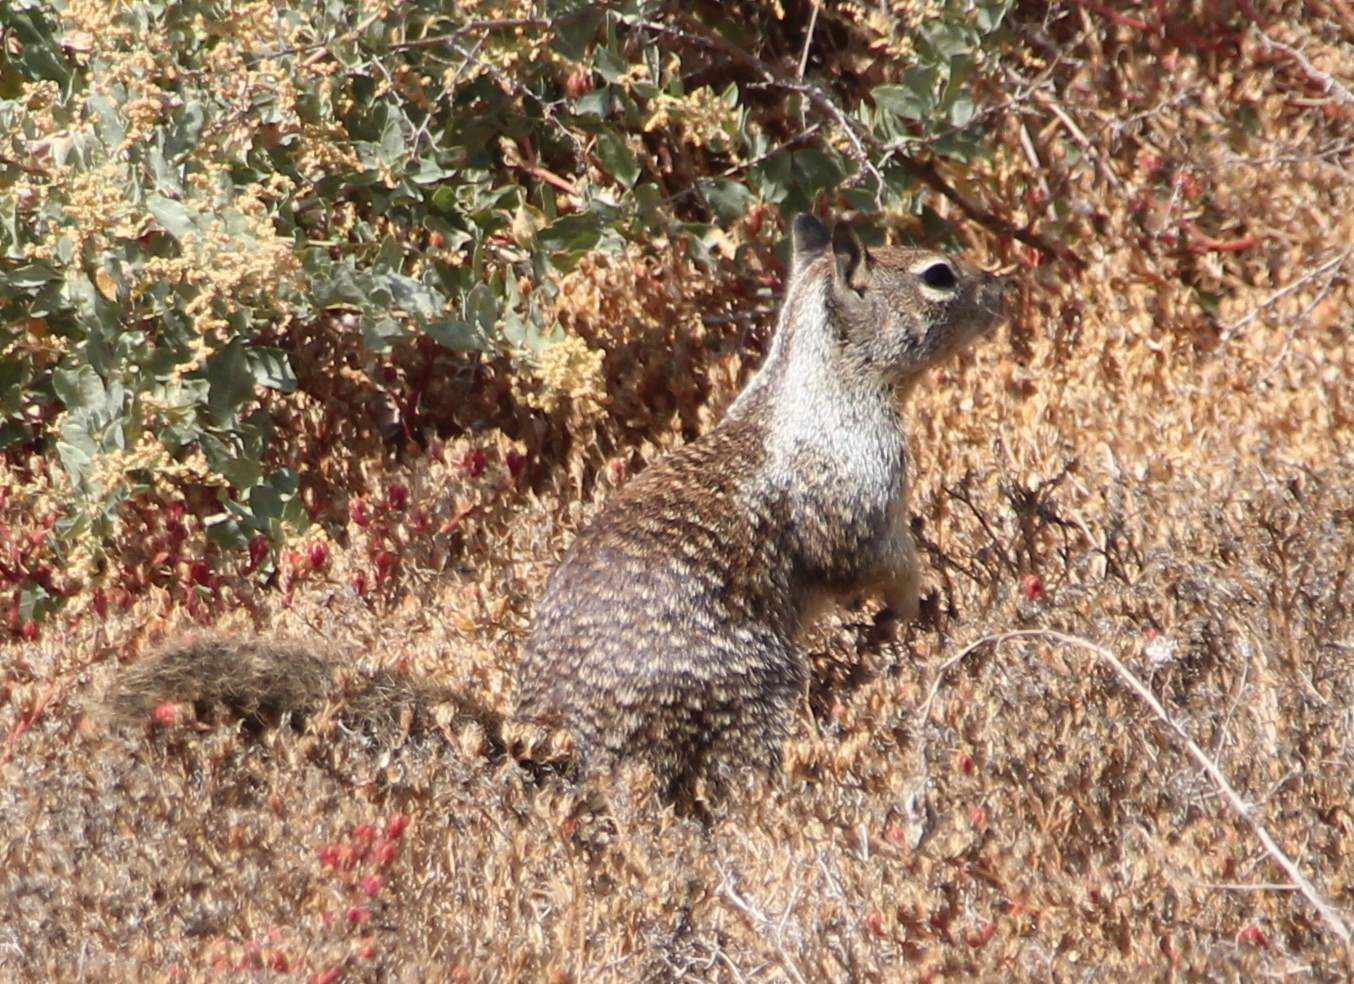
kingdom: Animalia
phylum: Chordata
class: Mammalia
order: Rodentia
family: Sciuridae
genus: Otospermophilus
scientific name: Otospermophilus beecheyi
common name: California ground squirrel
